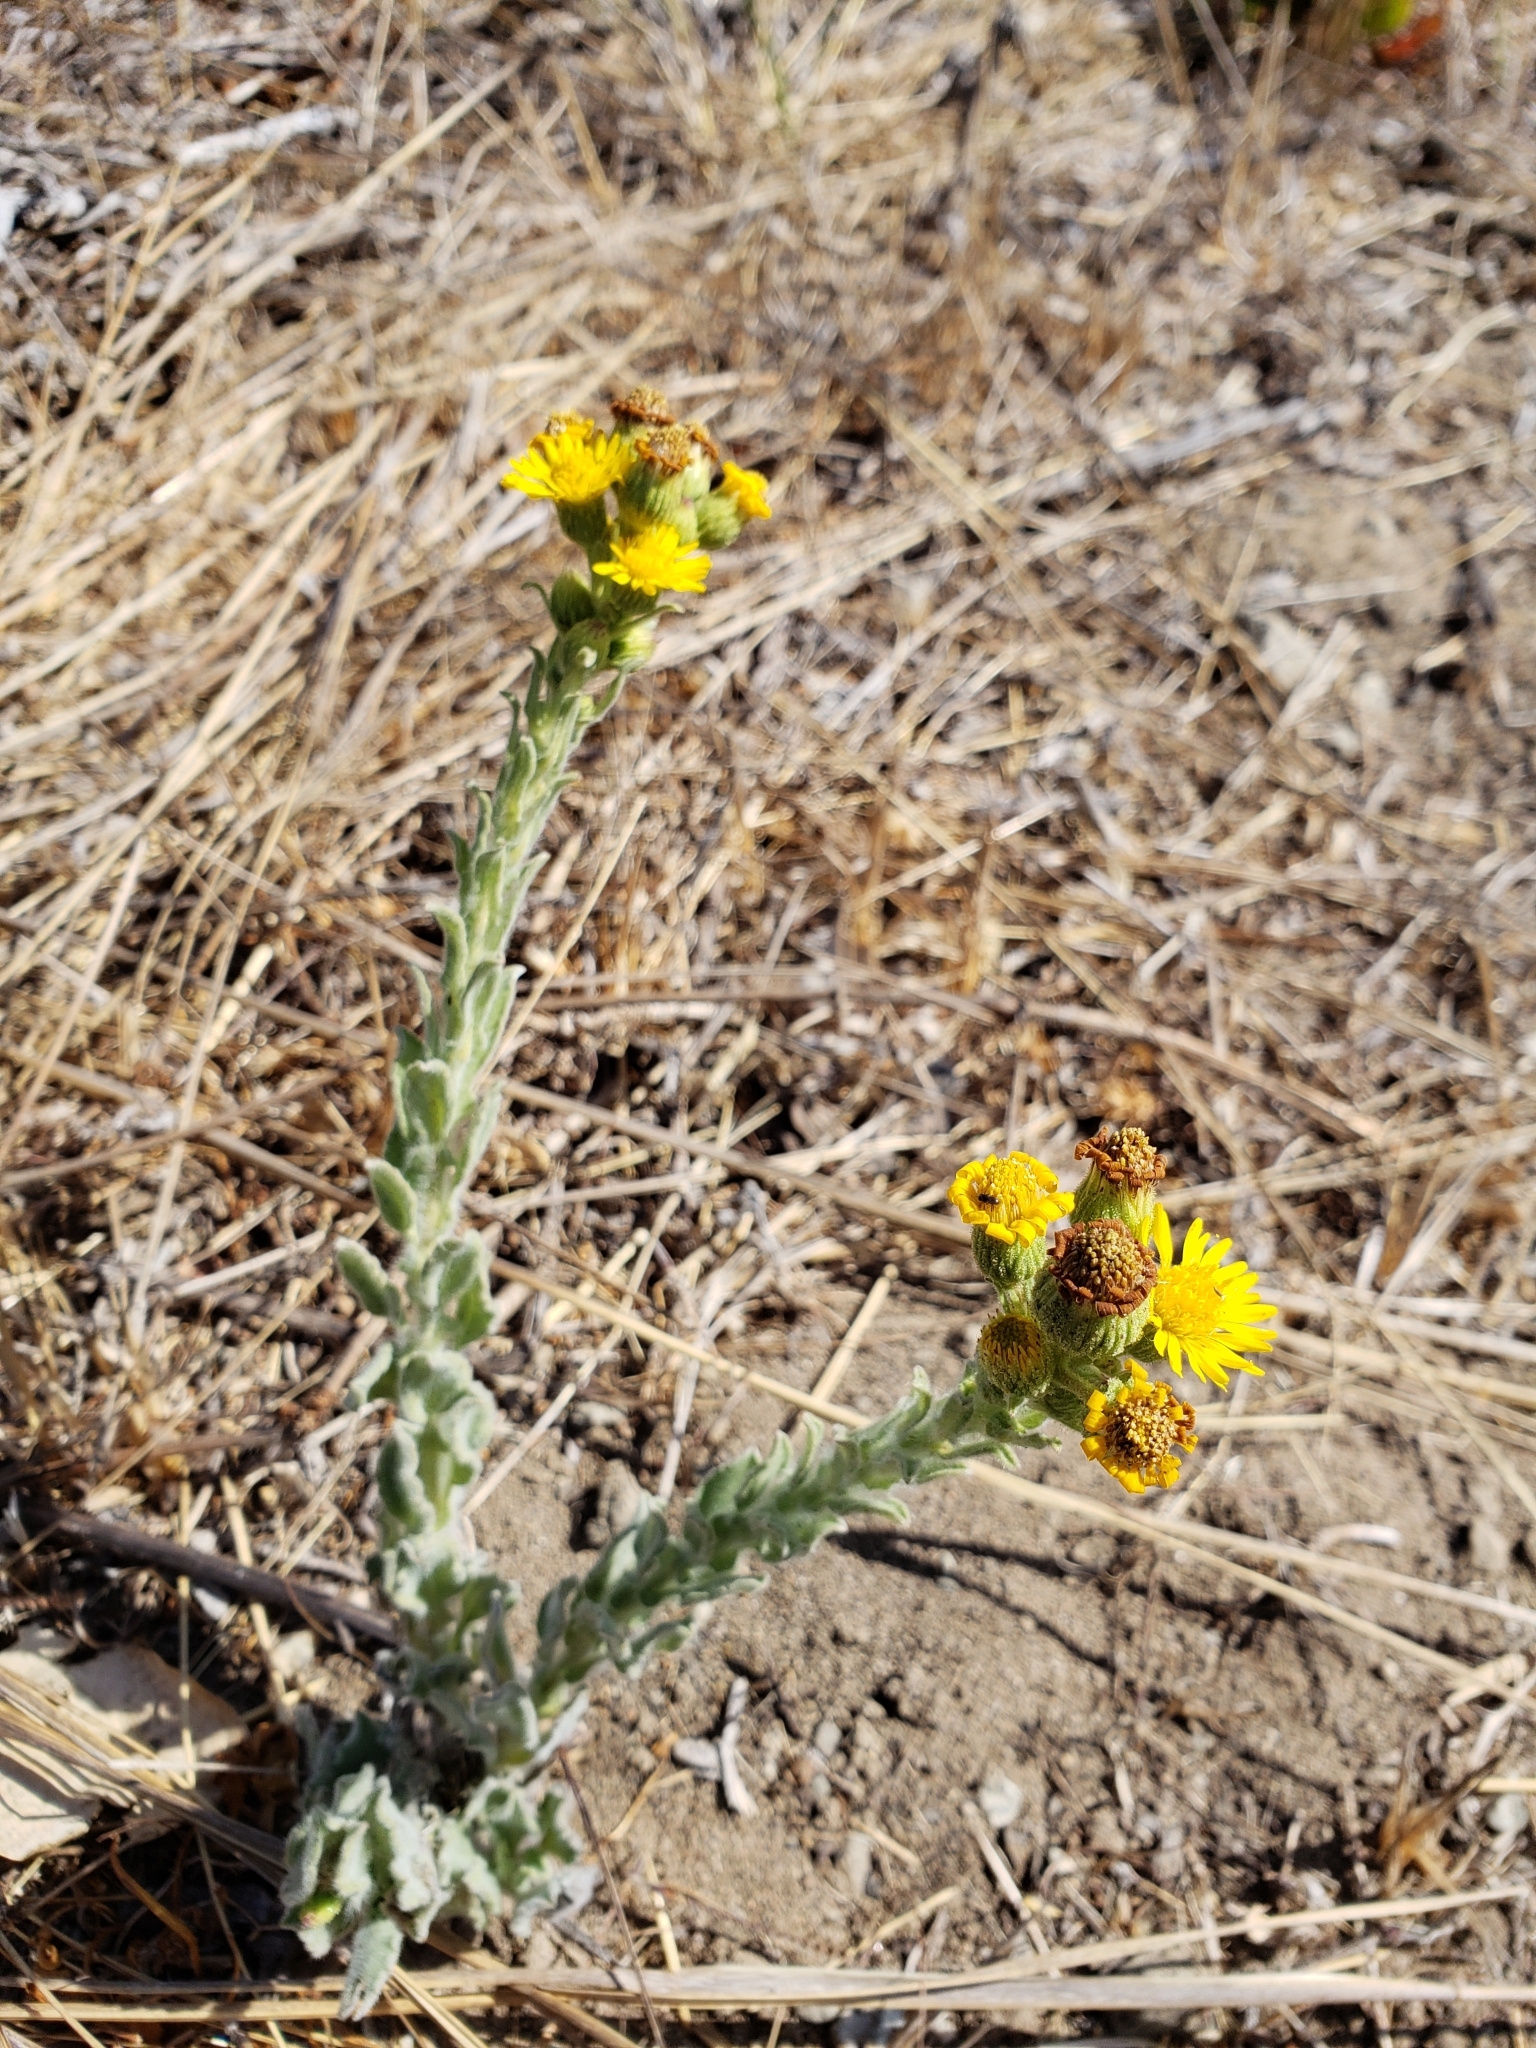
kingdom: Plantae
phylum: Tracheophyta
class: Magnoliopsida
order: Asterales
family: Asteraceae
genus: Heterotheca
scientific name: Heterotheca grandiflora
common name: Telegraphweed
